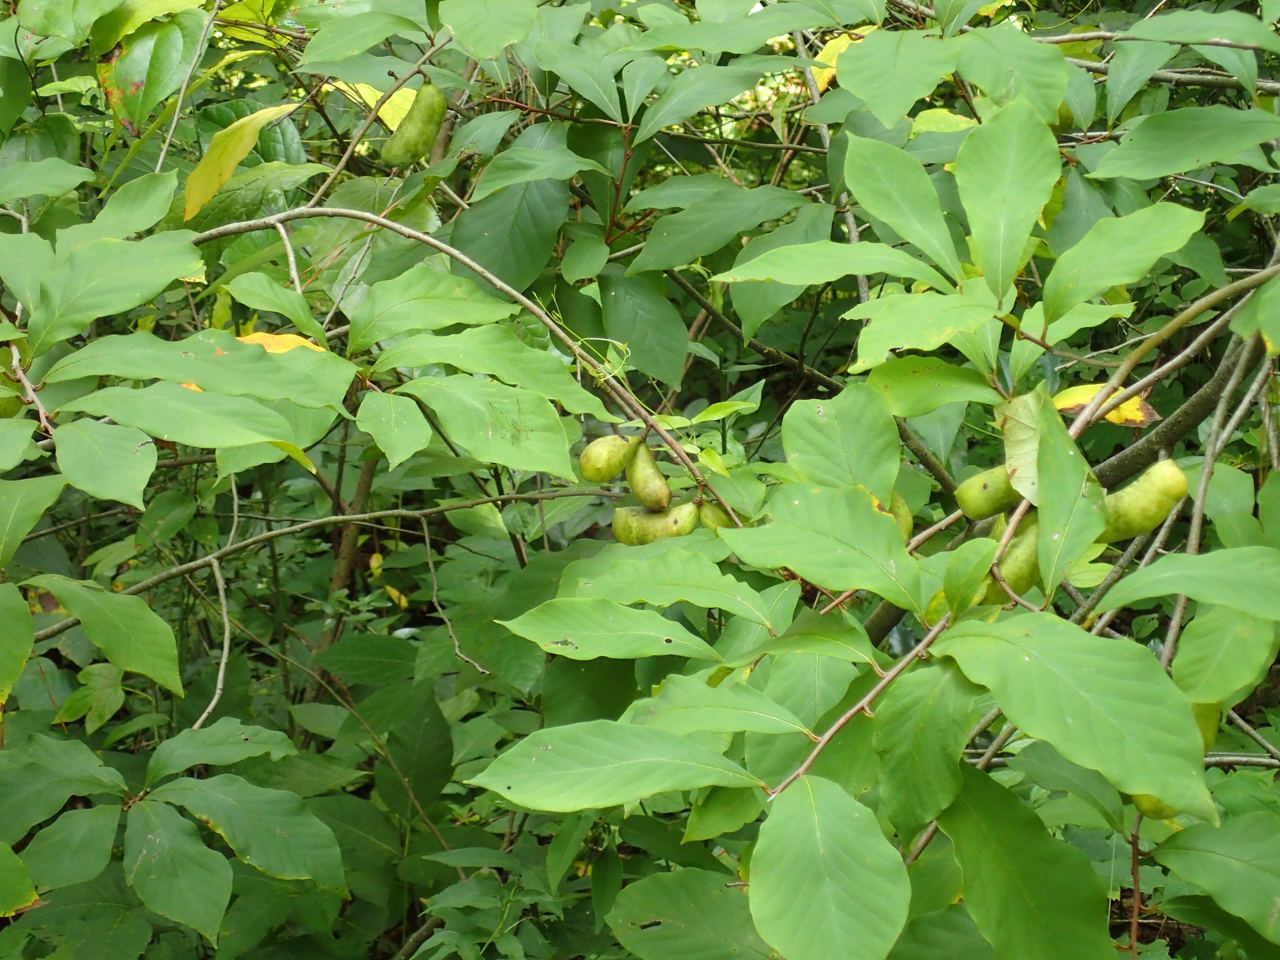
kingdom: Plantae
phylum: Tracheophyta
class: Magnoliopsida
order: Magnoliales
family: Annonaceae
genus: Asimina
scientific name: Asimina parviflora
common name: Dwarf pawpaw
